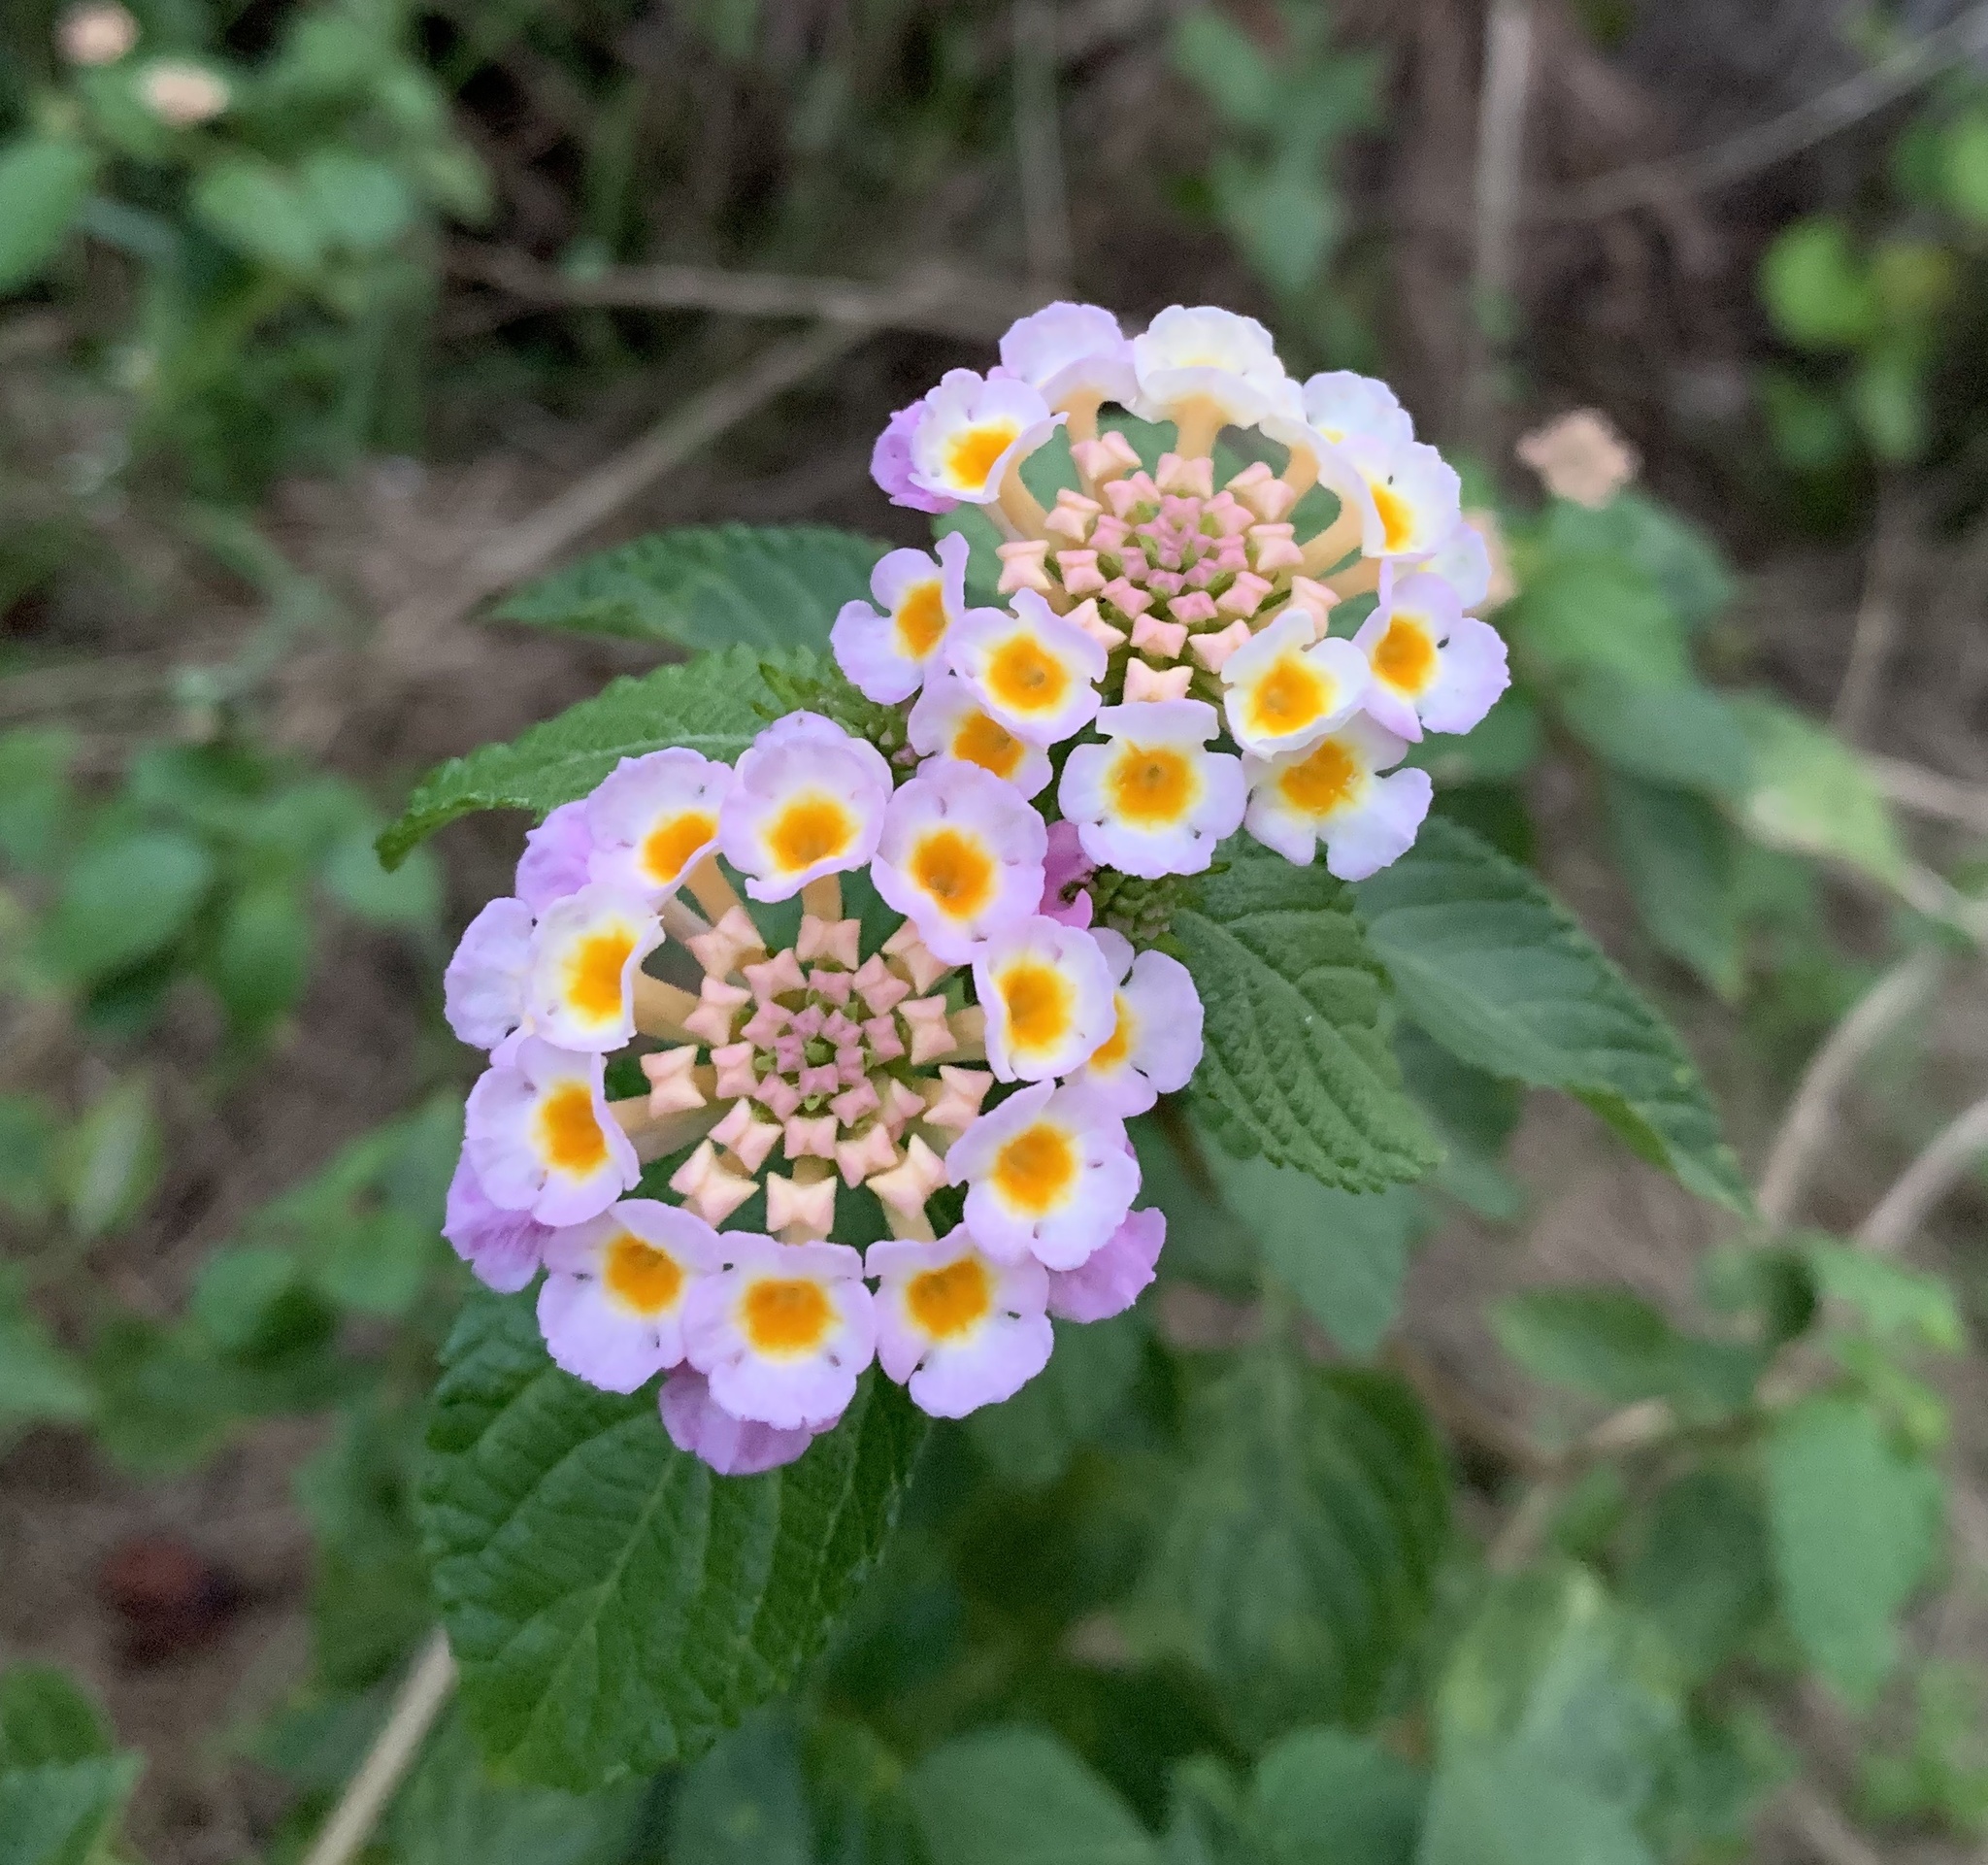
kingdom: Plantae
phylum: Tracheophyta
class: Magnoliopsida
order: Lamiales
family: Verbenaceae
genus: Lantana
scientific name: Lantana camara
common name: Lantana
